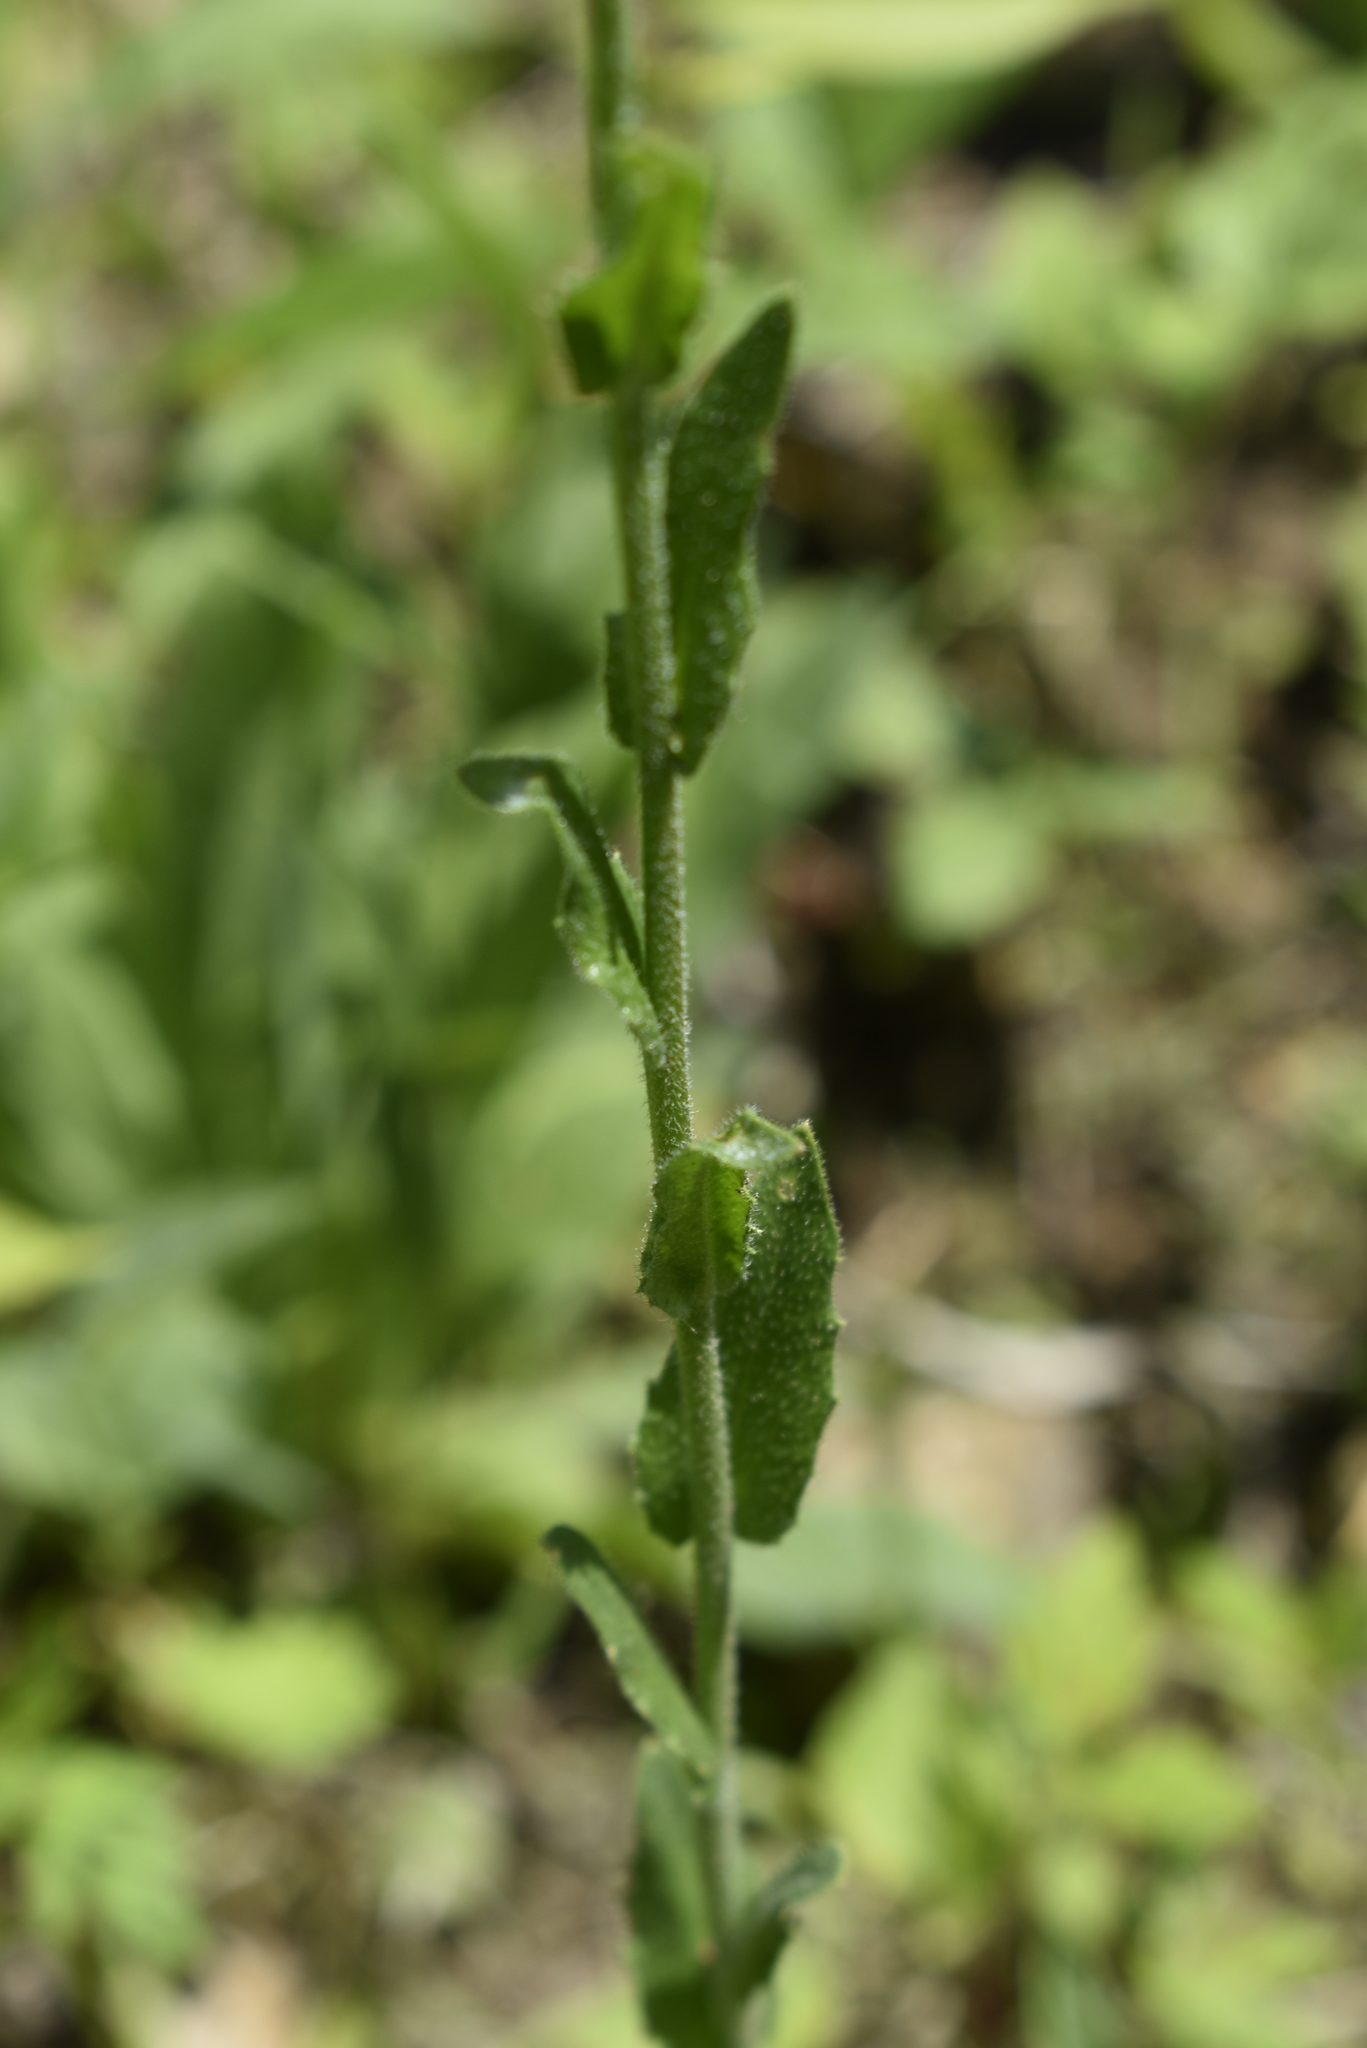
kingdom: Plantae
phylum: Tracheophyta
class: Magnoliopsida
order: Brassicales
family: Brassicaceae
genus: Arabis
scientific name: Arabis hirsuta
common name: Hairy rock-cress
